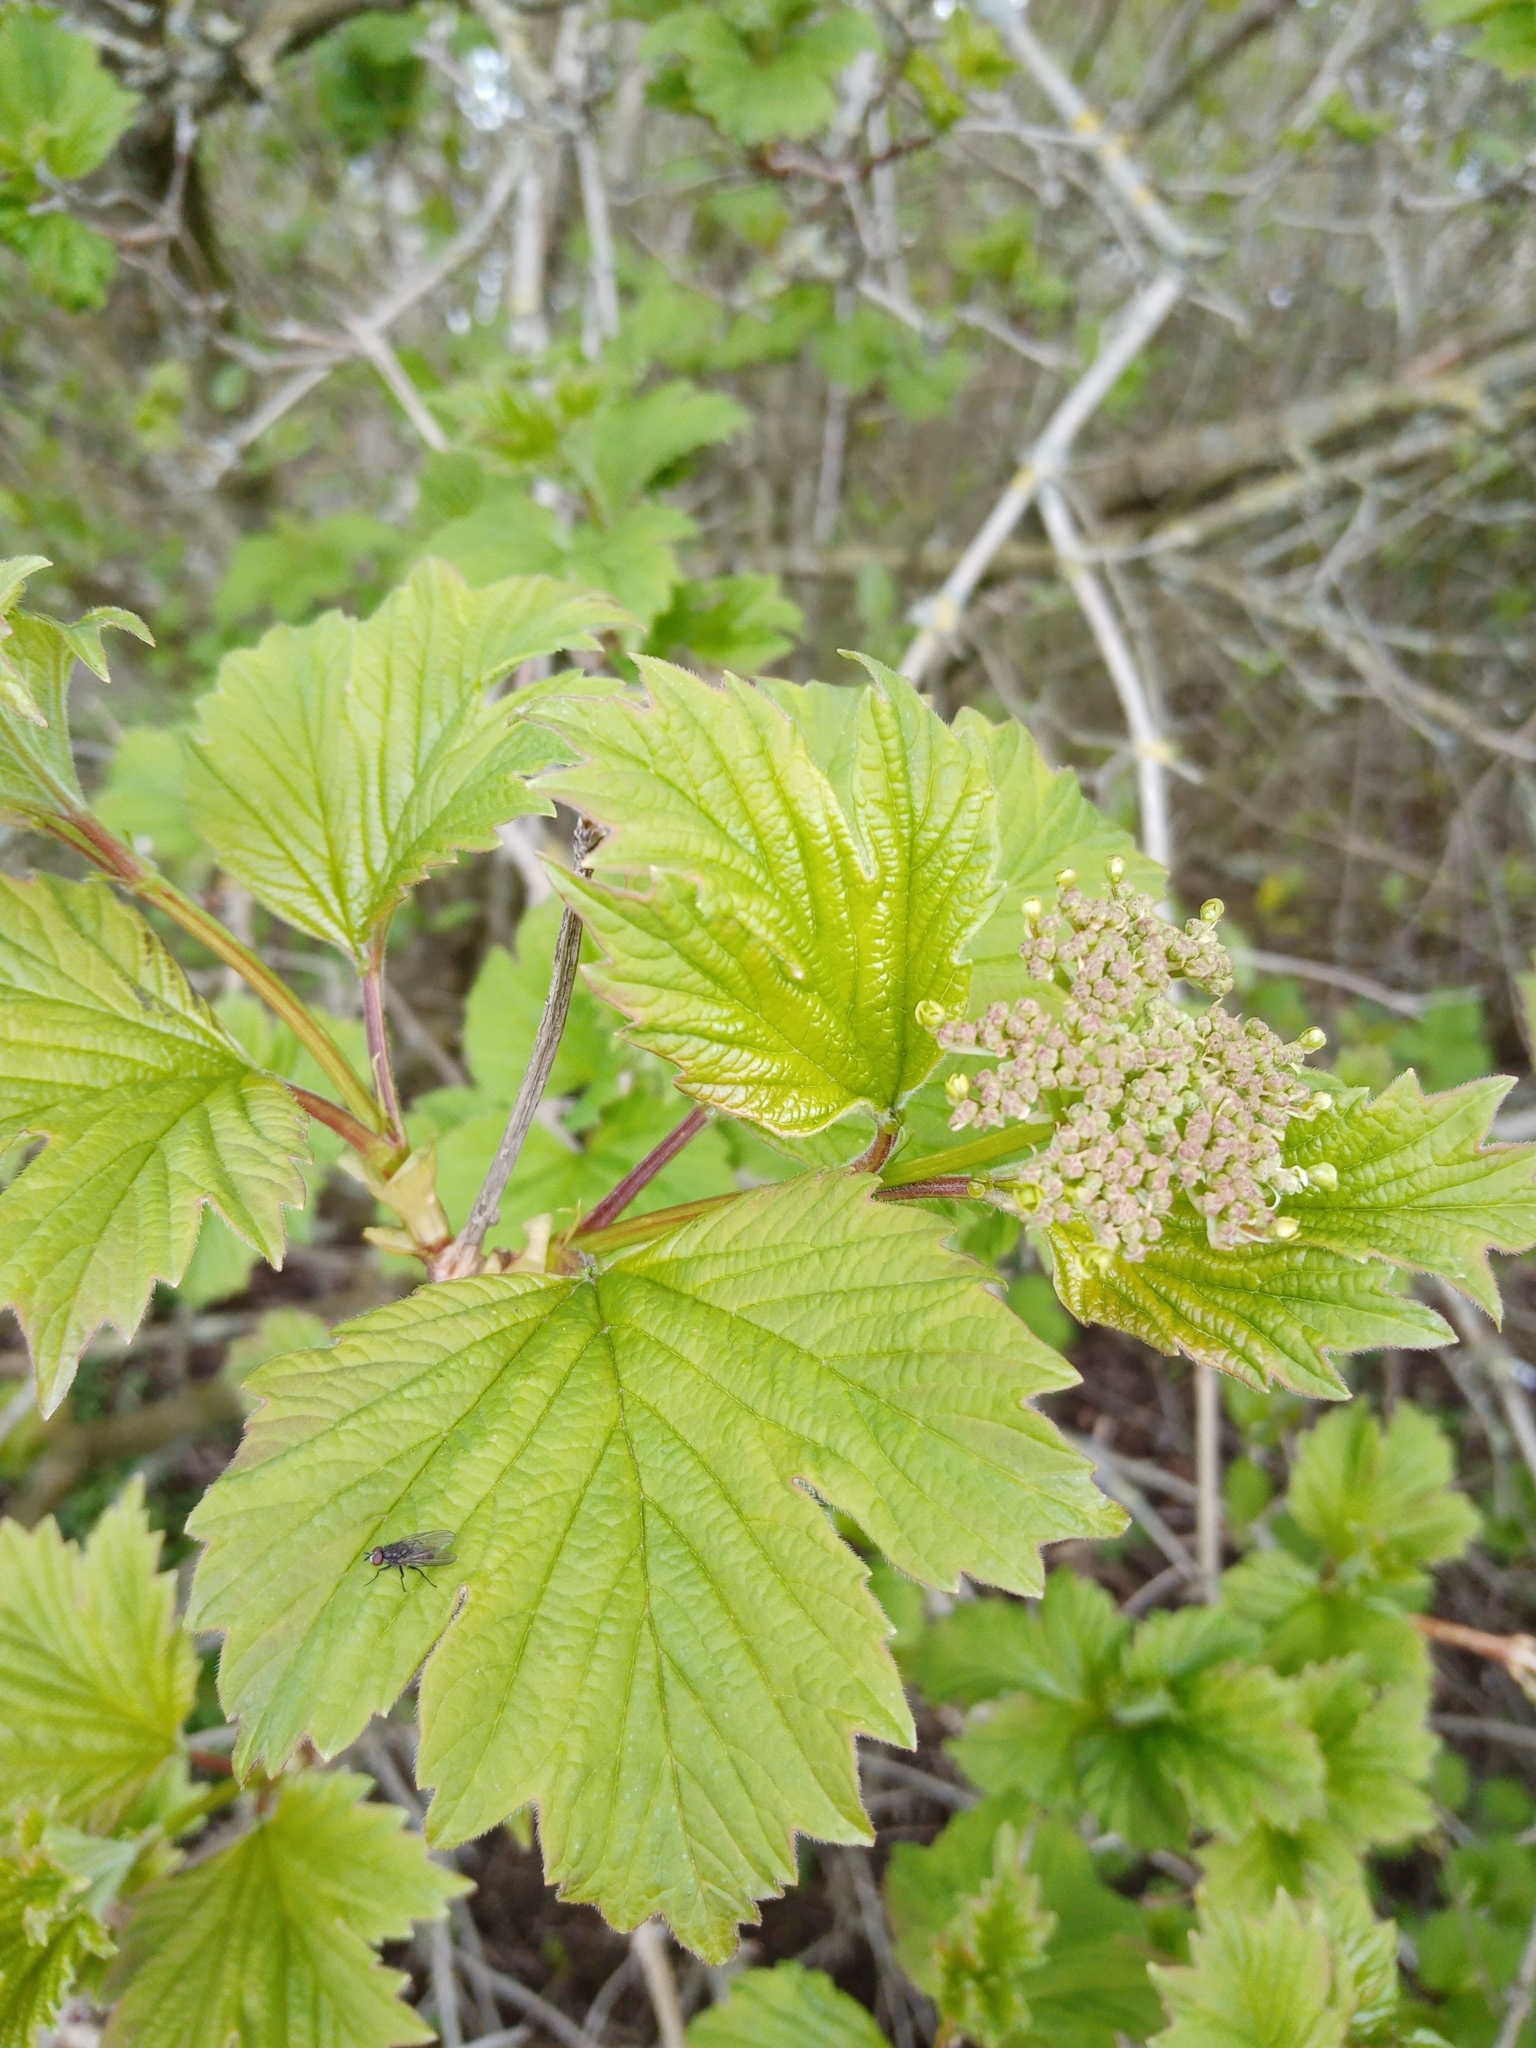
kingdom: Plantae
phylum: Tracheophyta
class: Magnoliopsida
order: Dipsacales
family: Viburnaceae
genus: Viburnum
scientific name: Viburnum opulus
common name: Guelder-rose
